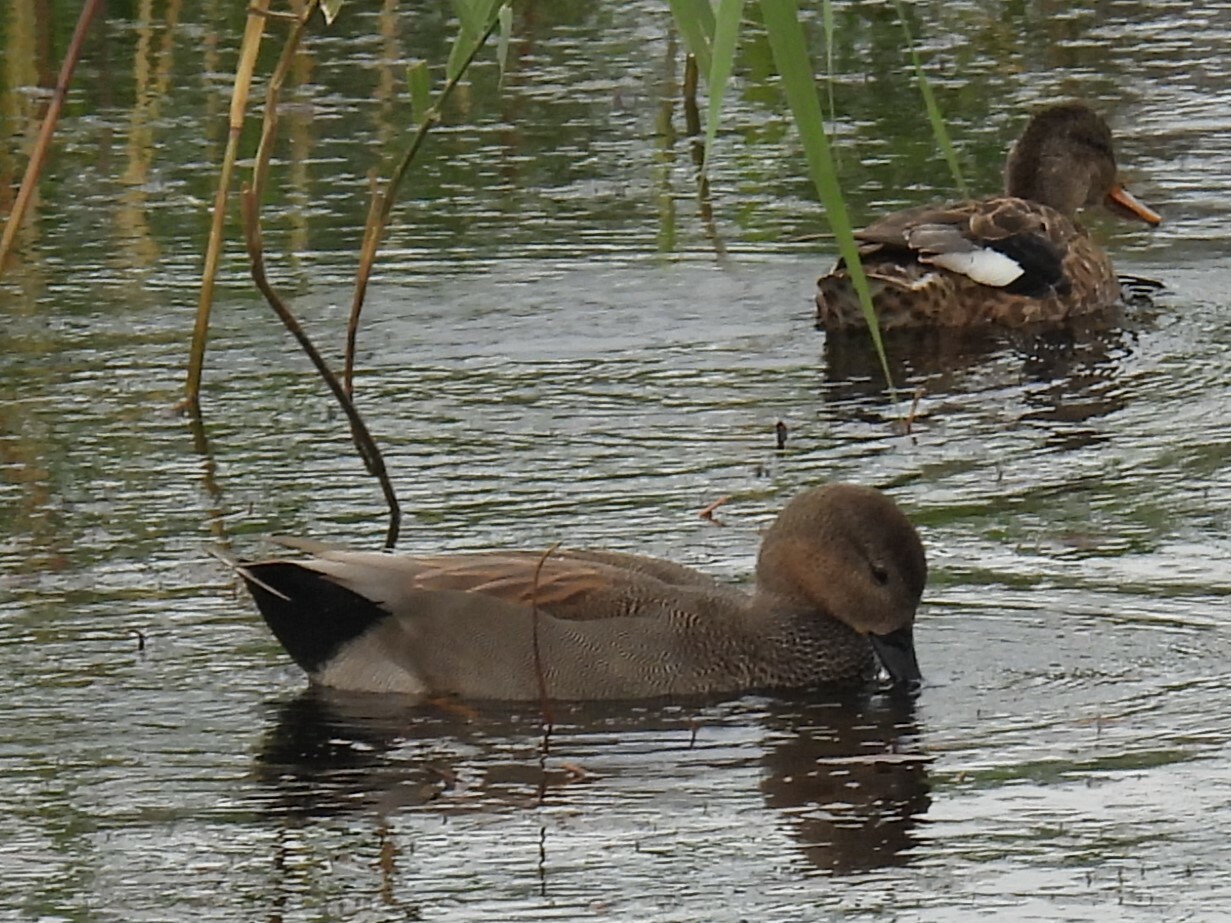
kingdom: Animalia
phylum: Chordata
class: Aves
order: Anseriformes
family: Anatidae
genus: Mareca
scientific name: Mareca strepera
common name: Gadwall
